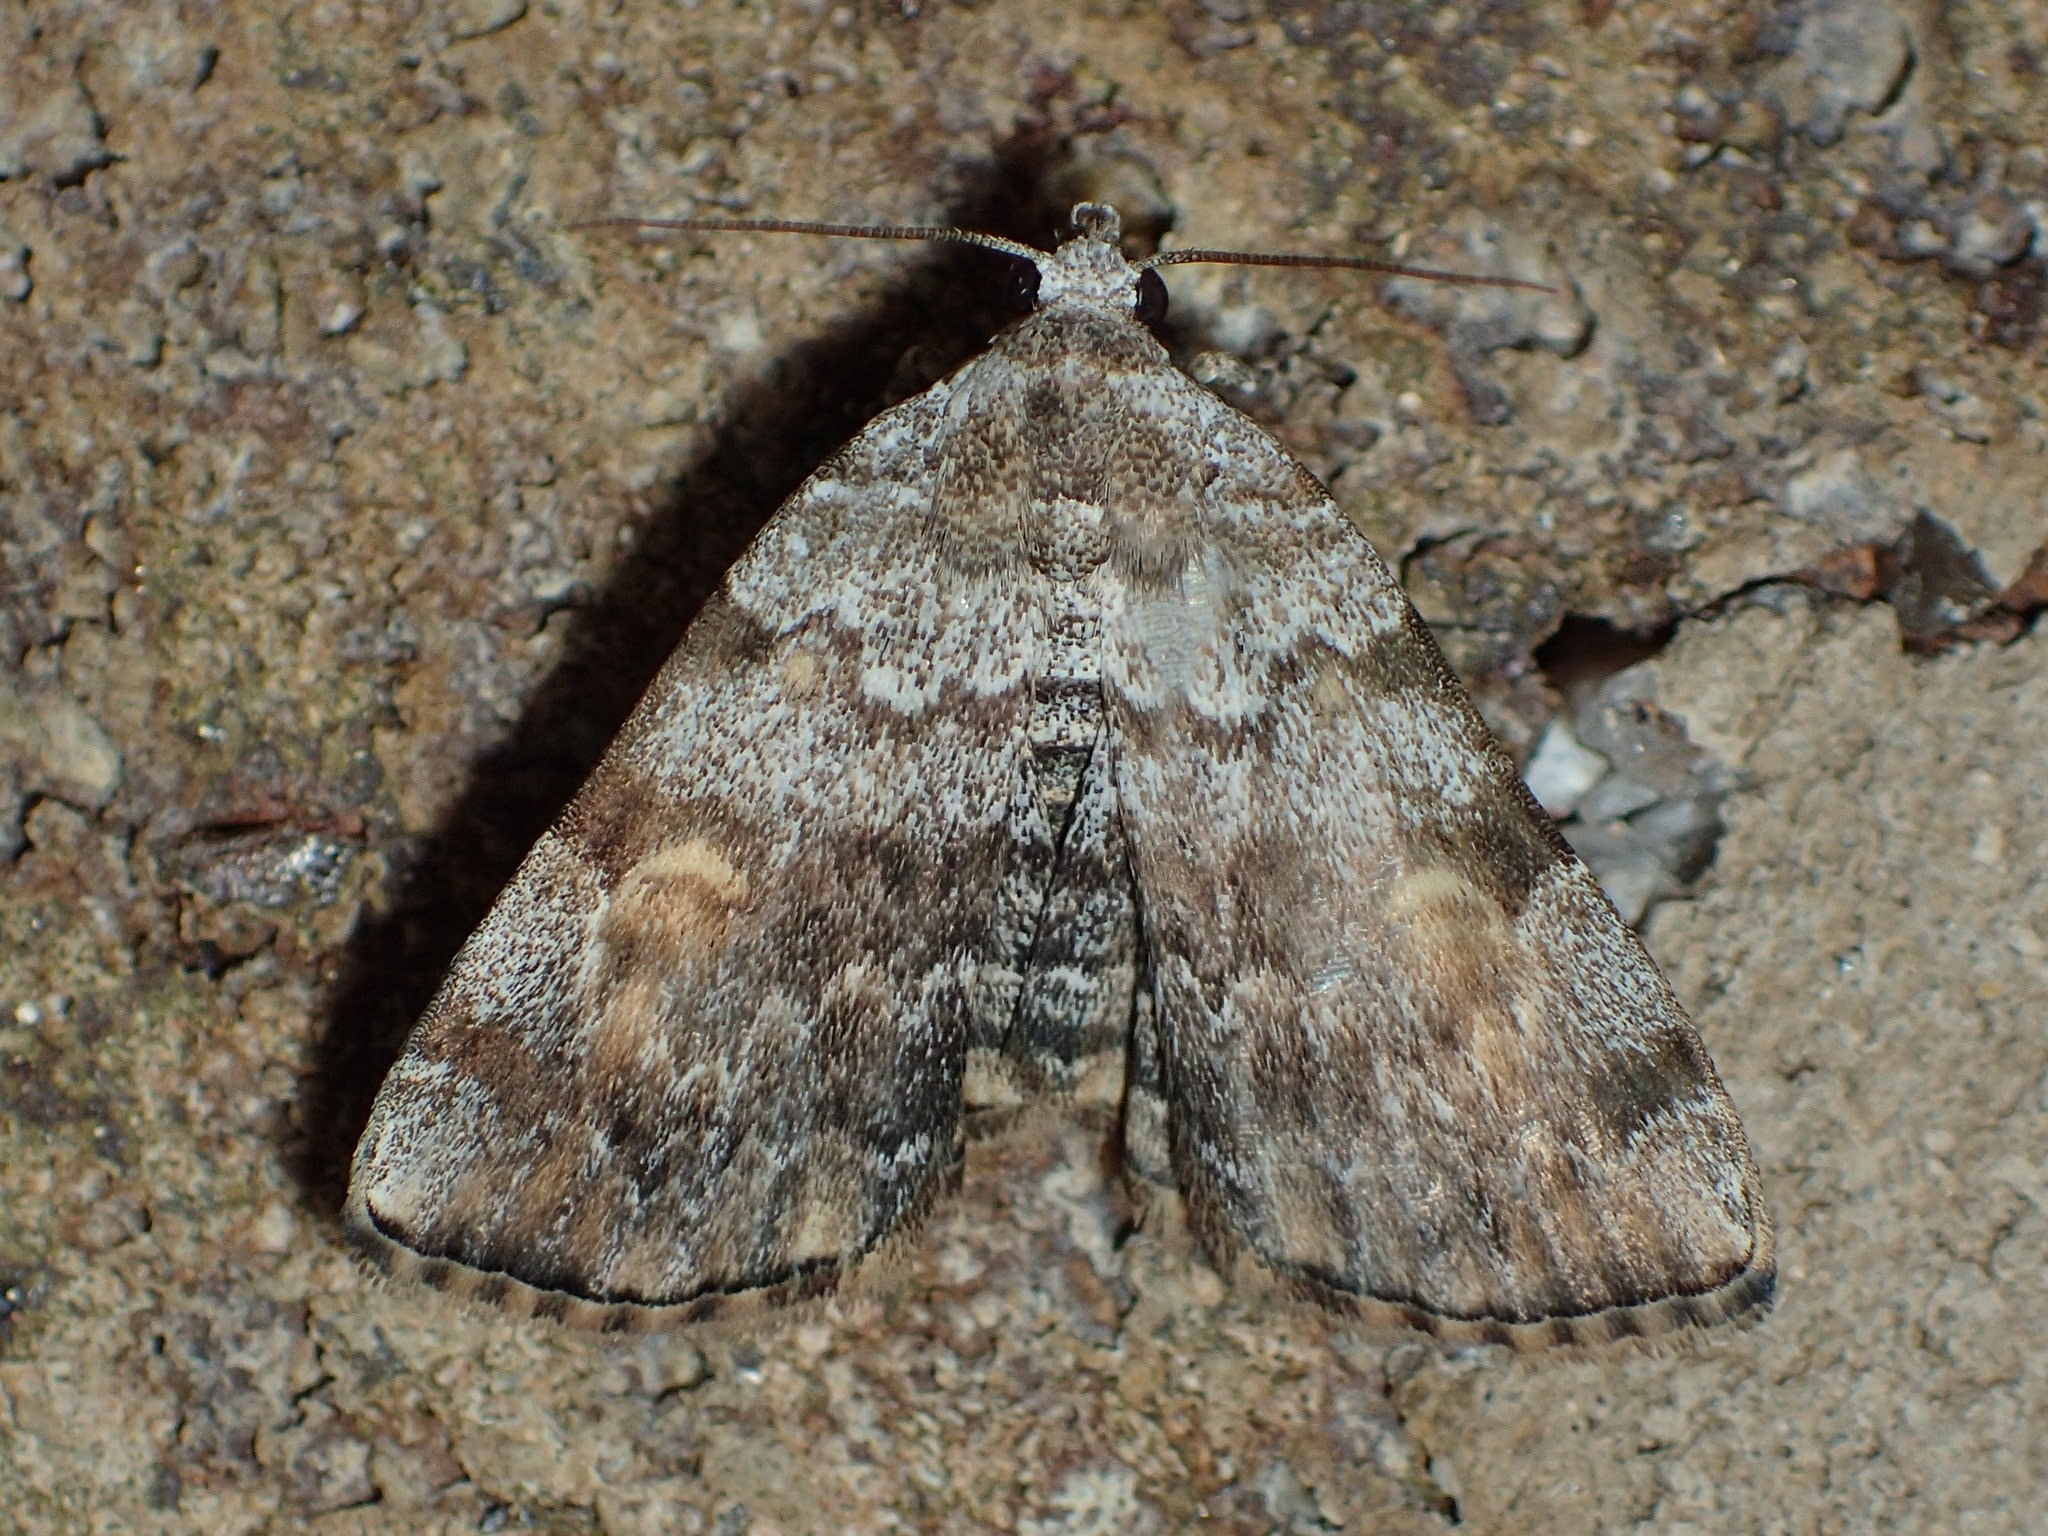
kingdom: Animalia
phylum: Arthropoda
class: Insecta
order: Lepidoptera
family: Erebidae
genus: Idia
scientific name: Idia americalis
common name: American idia moth
